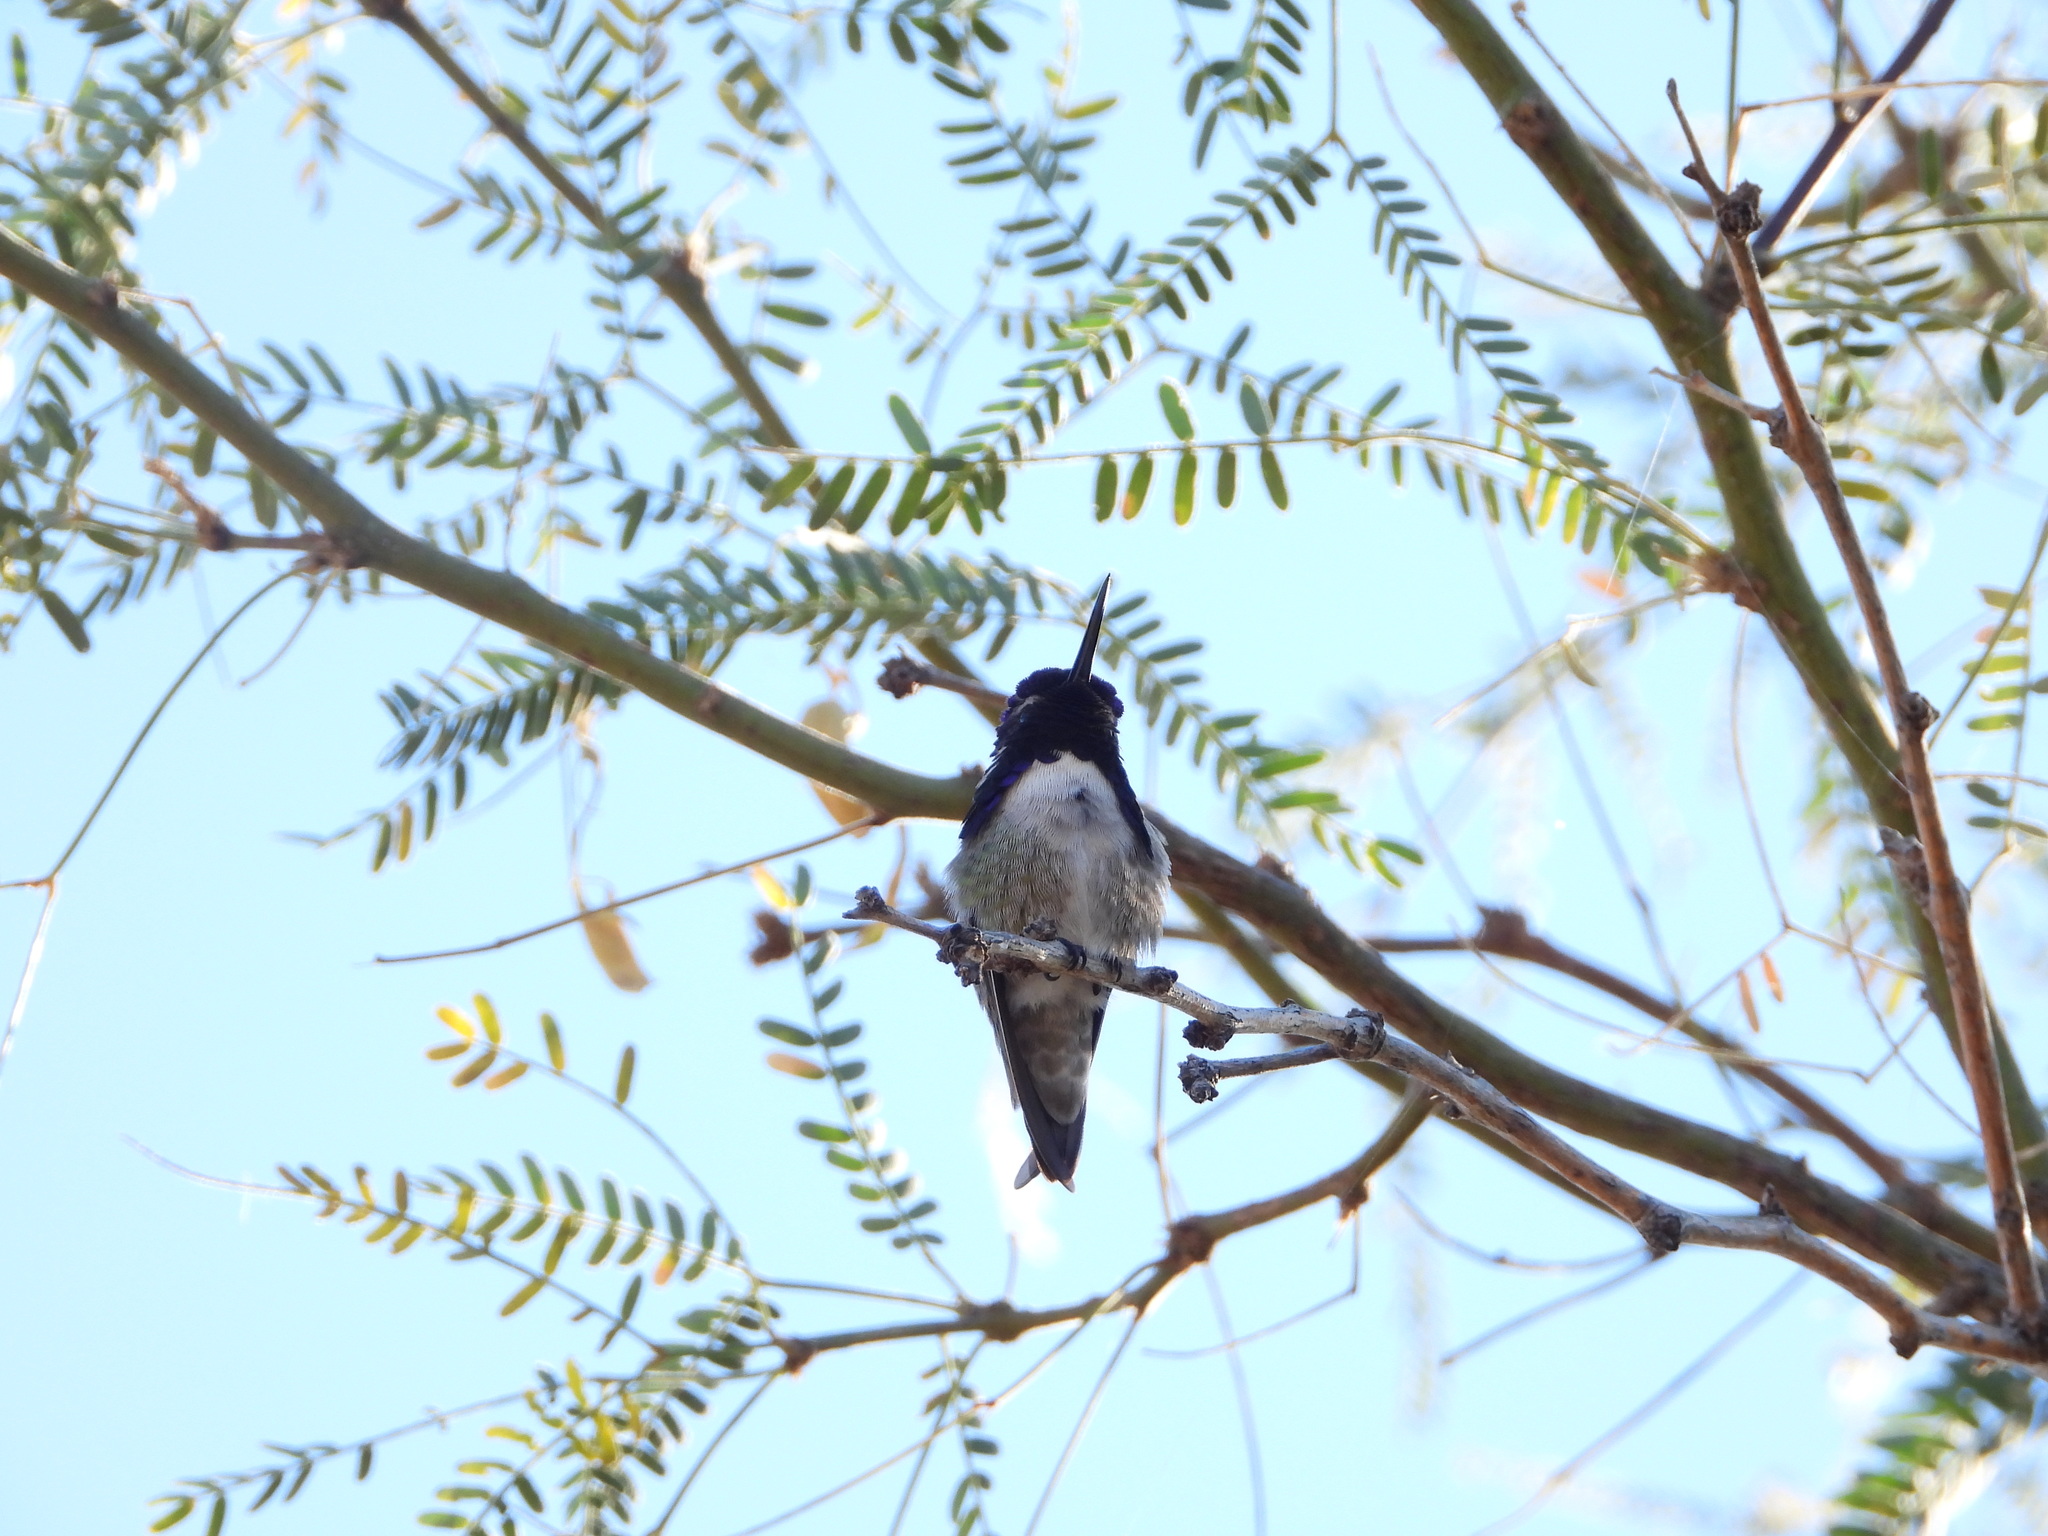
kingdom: Animalia
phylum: Chordata
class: Aves
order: Apodiformes
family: Trochilidae
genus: Calypte
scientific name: Calypte costae
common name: Costa's hummingbird
